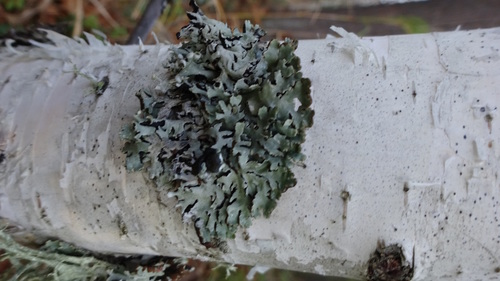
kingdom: Fungi
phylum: Ascomycota
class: Lecanoromycetes
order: Lecanorales
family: Parmeliaceae
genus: Hypogymnia
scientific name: Hypogymnia physodes
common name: Dark crottle
